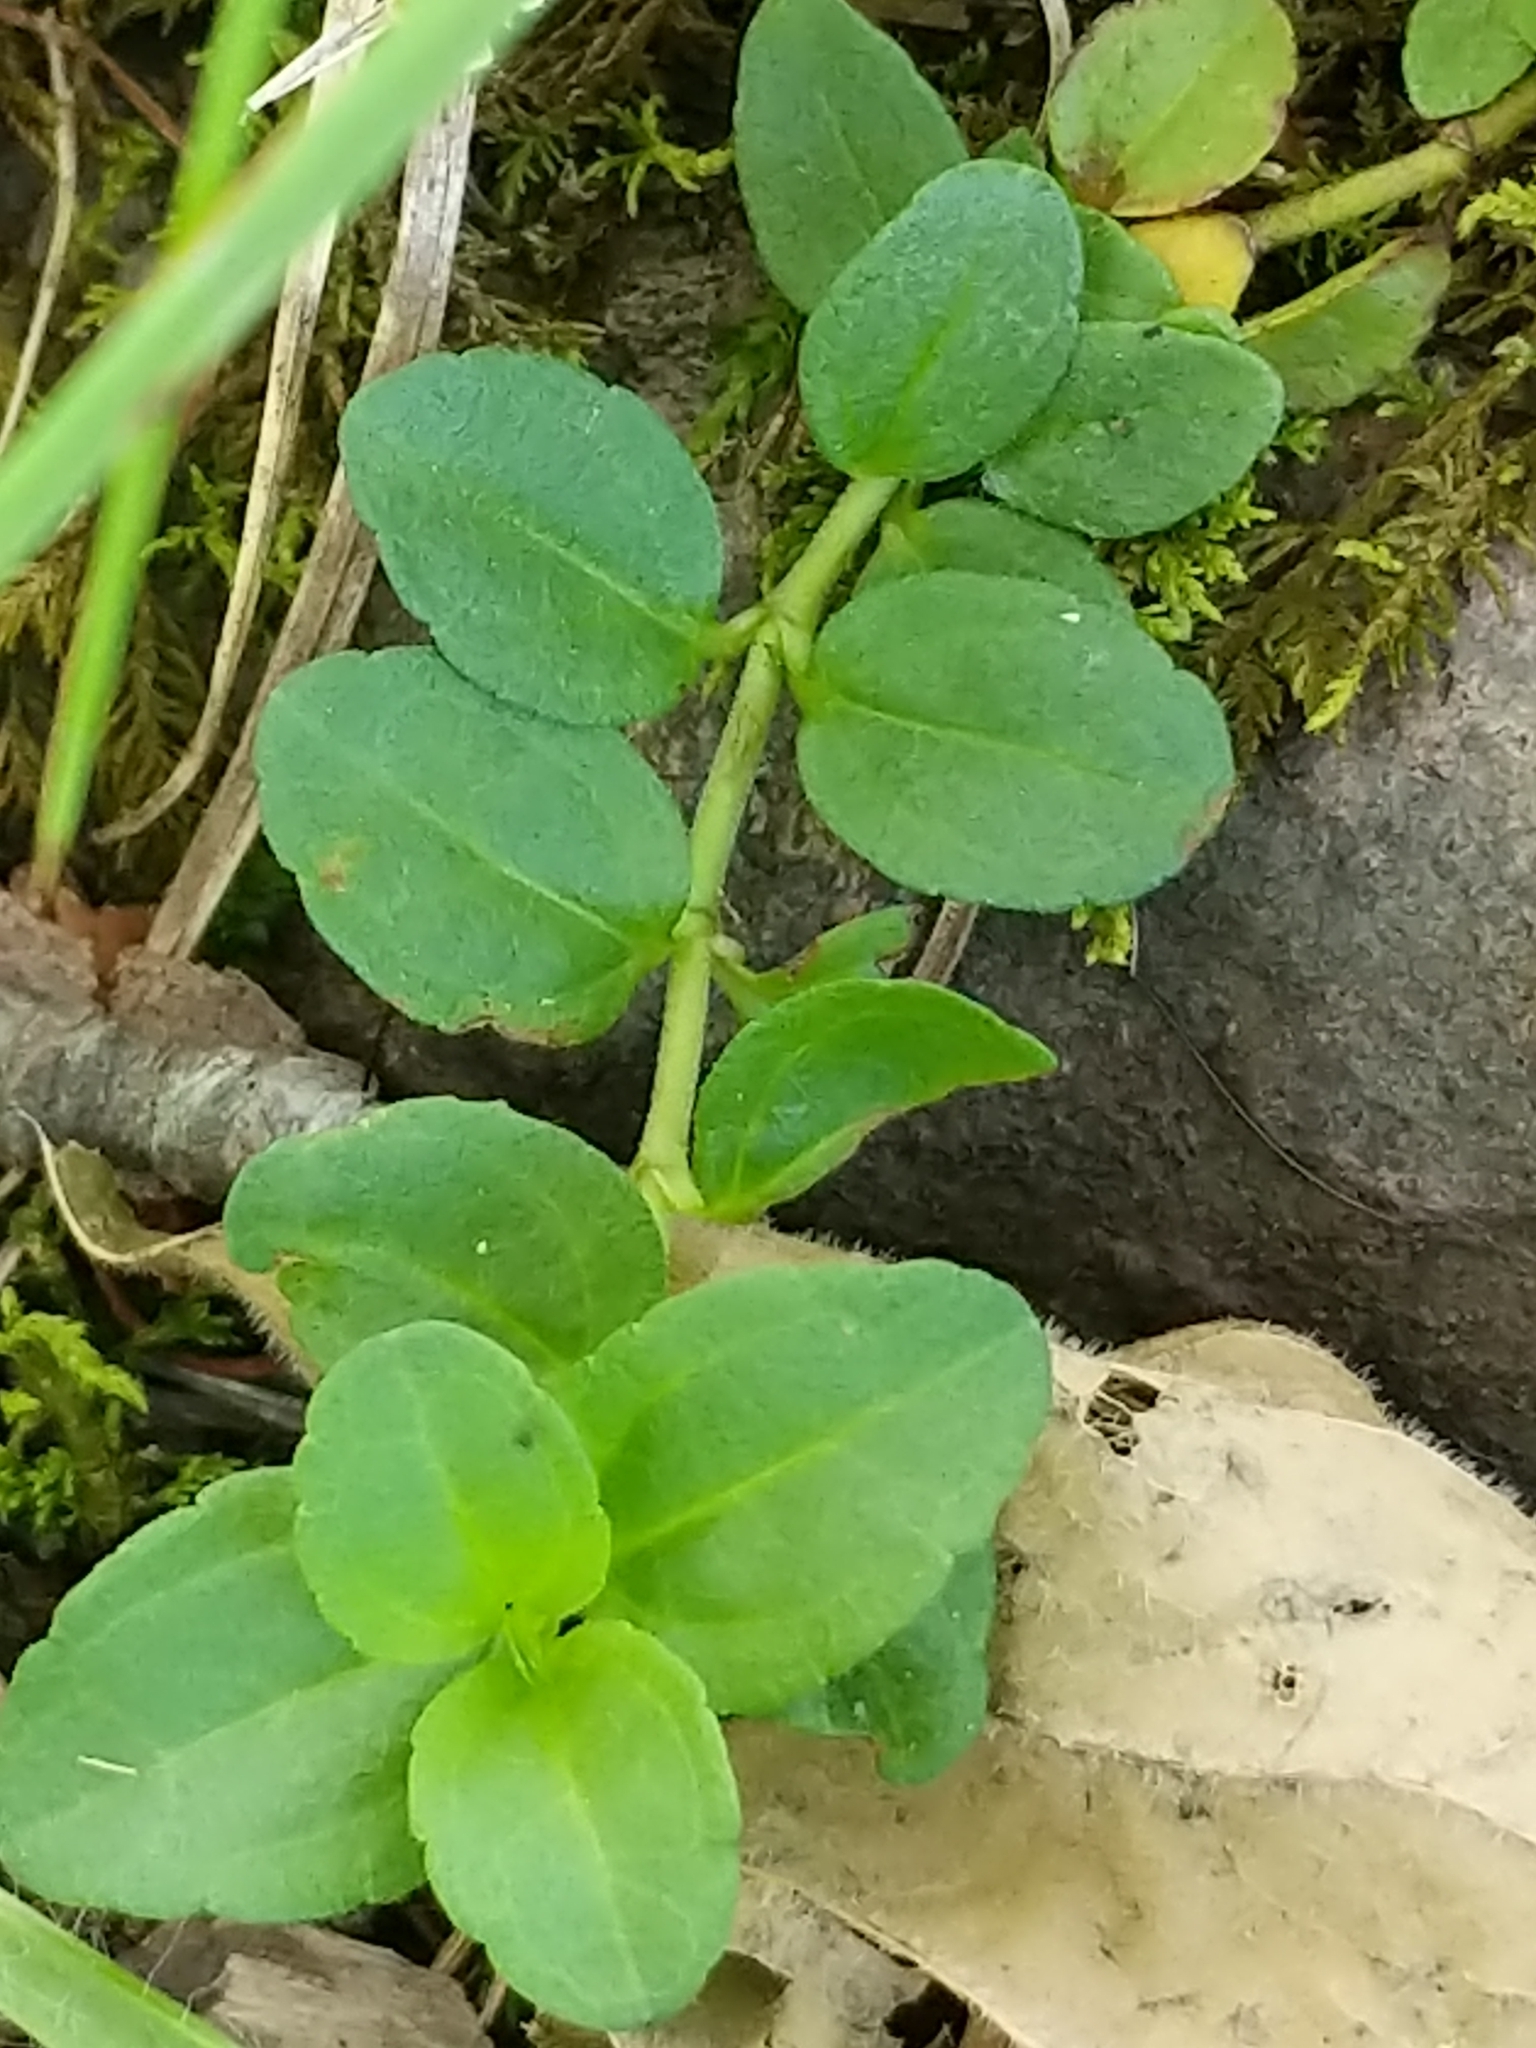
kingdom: Plantae
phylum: Tracheophyta
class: Magnoliopsida
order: Lamiales
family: Plantaginaceae
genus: Veronica
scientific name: Veronica serpyllifolia
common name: Thyme-leaved speedwell
